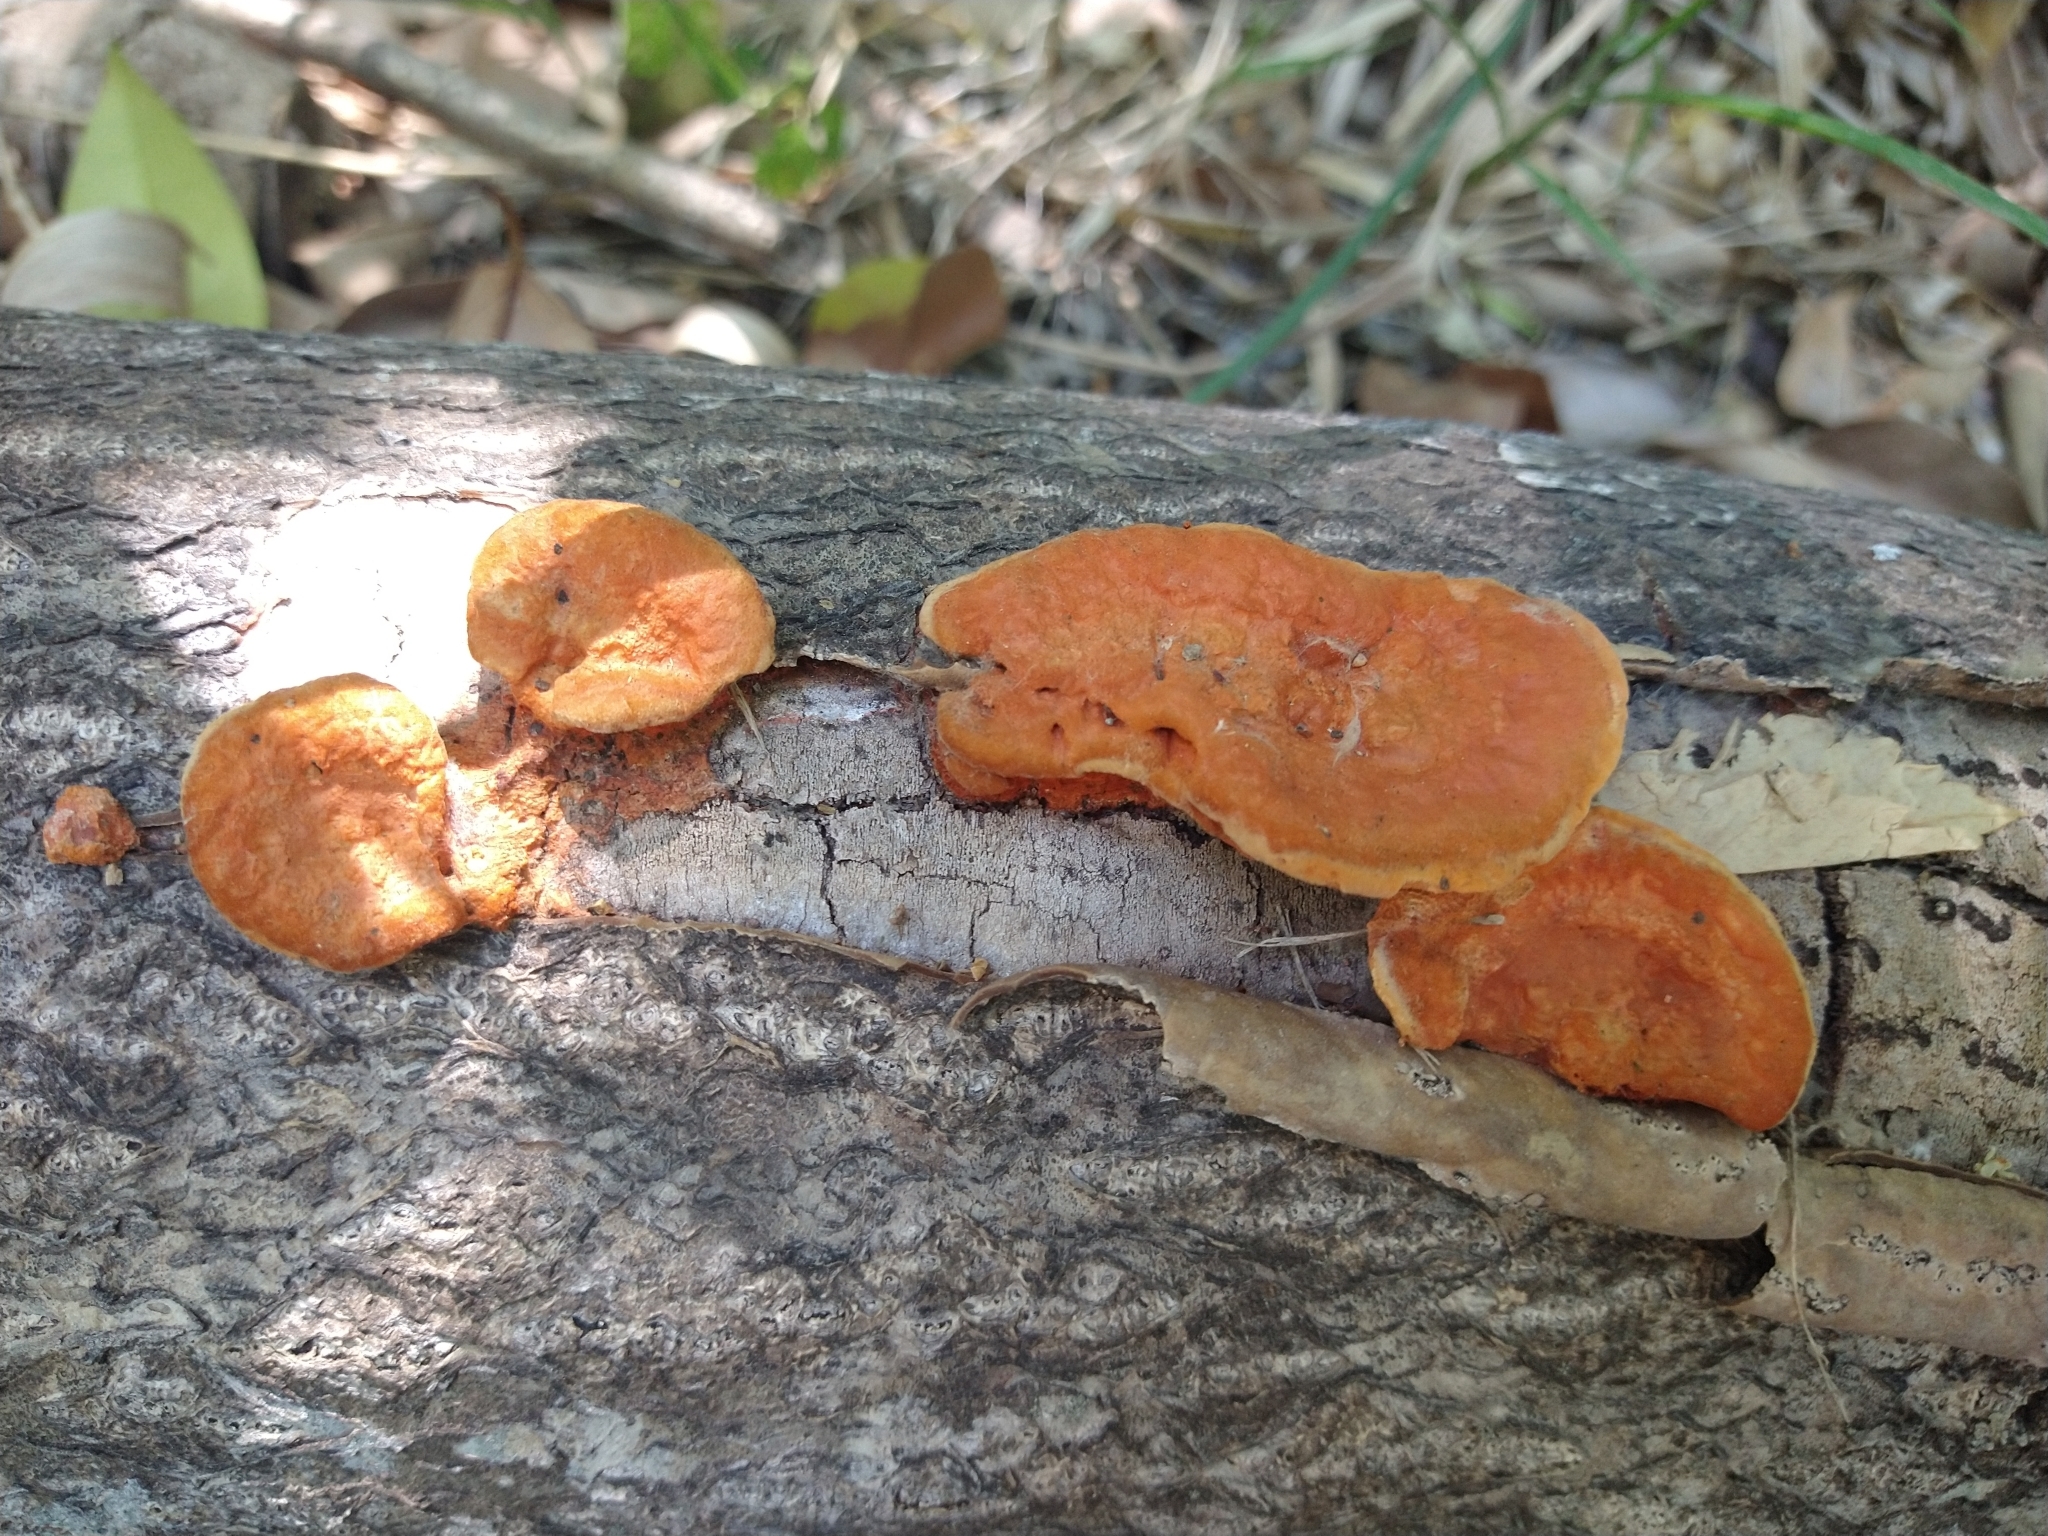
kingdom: Fungi
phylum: Basidiomycota
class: Agaricomycetes
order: Polyporales
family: Polyporaceae
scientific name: Polyporaceae
